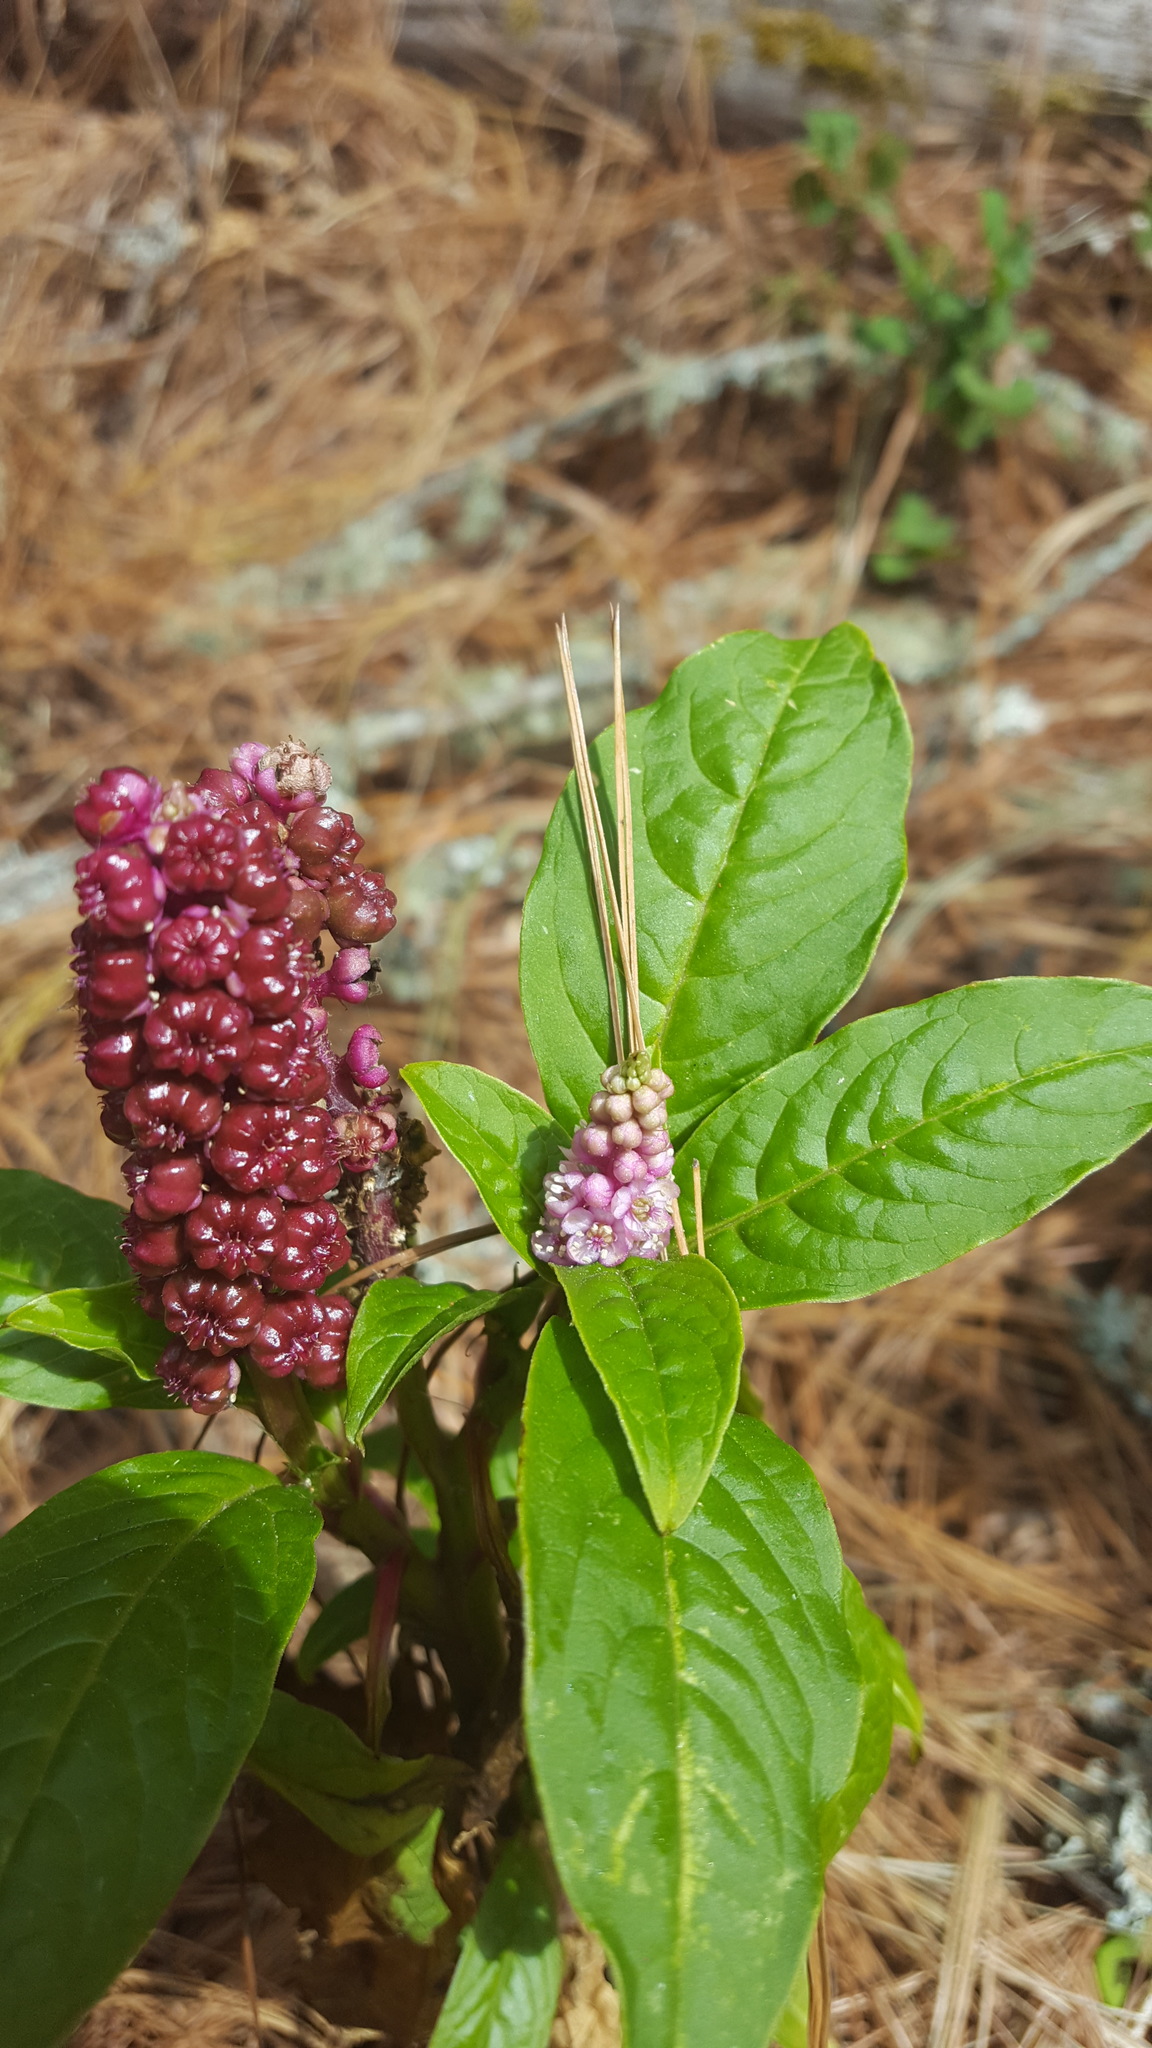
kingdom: Plantae
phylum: Tracheophyta
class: Magnoliopsida
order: Caryophyllales
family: Phytolaccaceae
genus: Phytolacca
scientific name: Phytolacca icosandra
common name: Button pokeweed
